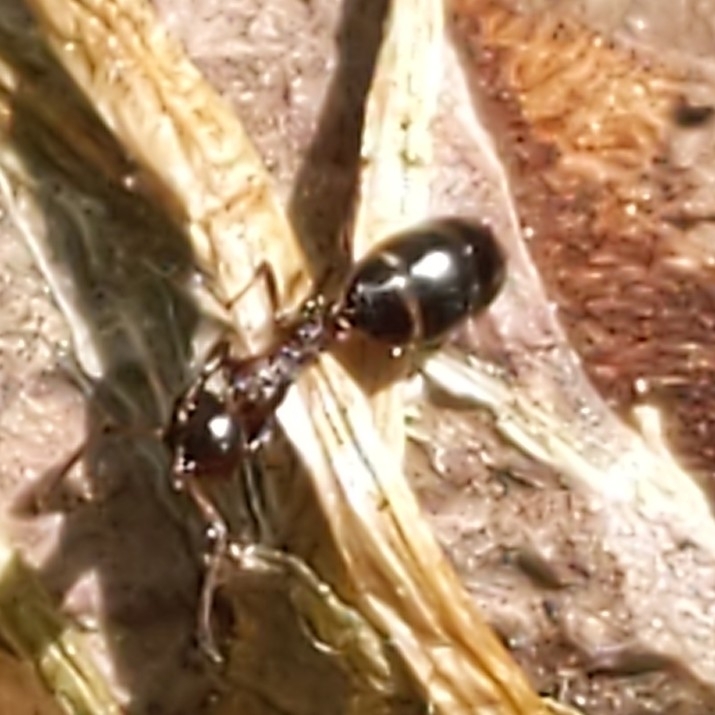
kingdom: Animalia
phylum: Arthropoda
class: Insecta
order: Hymenoptera
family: Formicidae
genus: Camponotus
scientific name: Camponotus nearcticus
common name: Smaller carpenter ant
